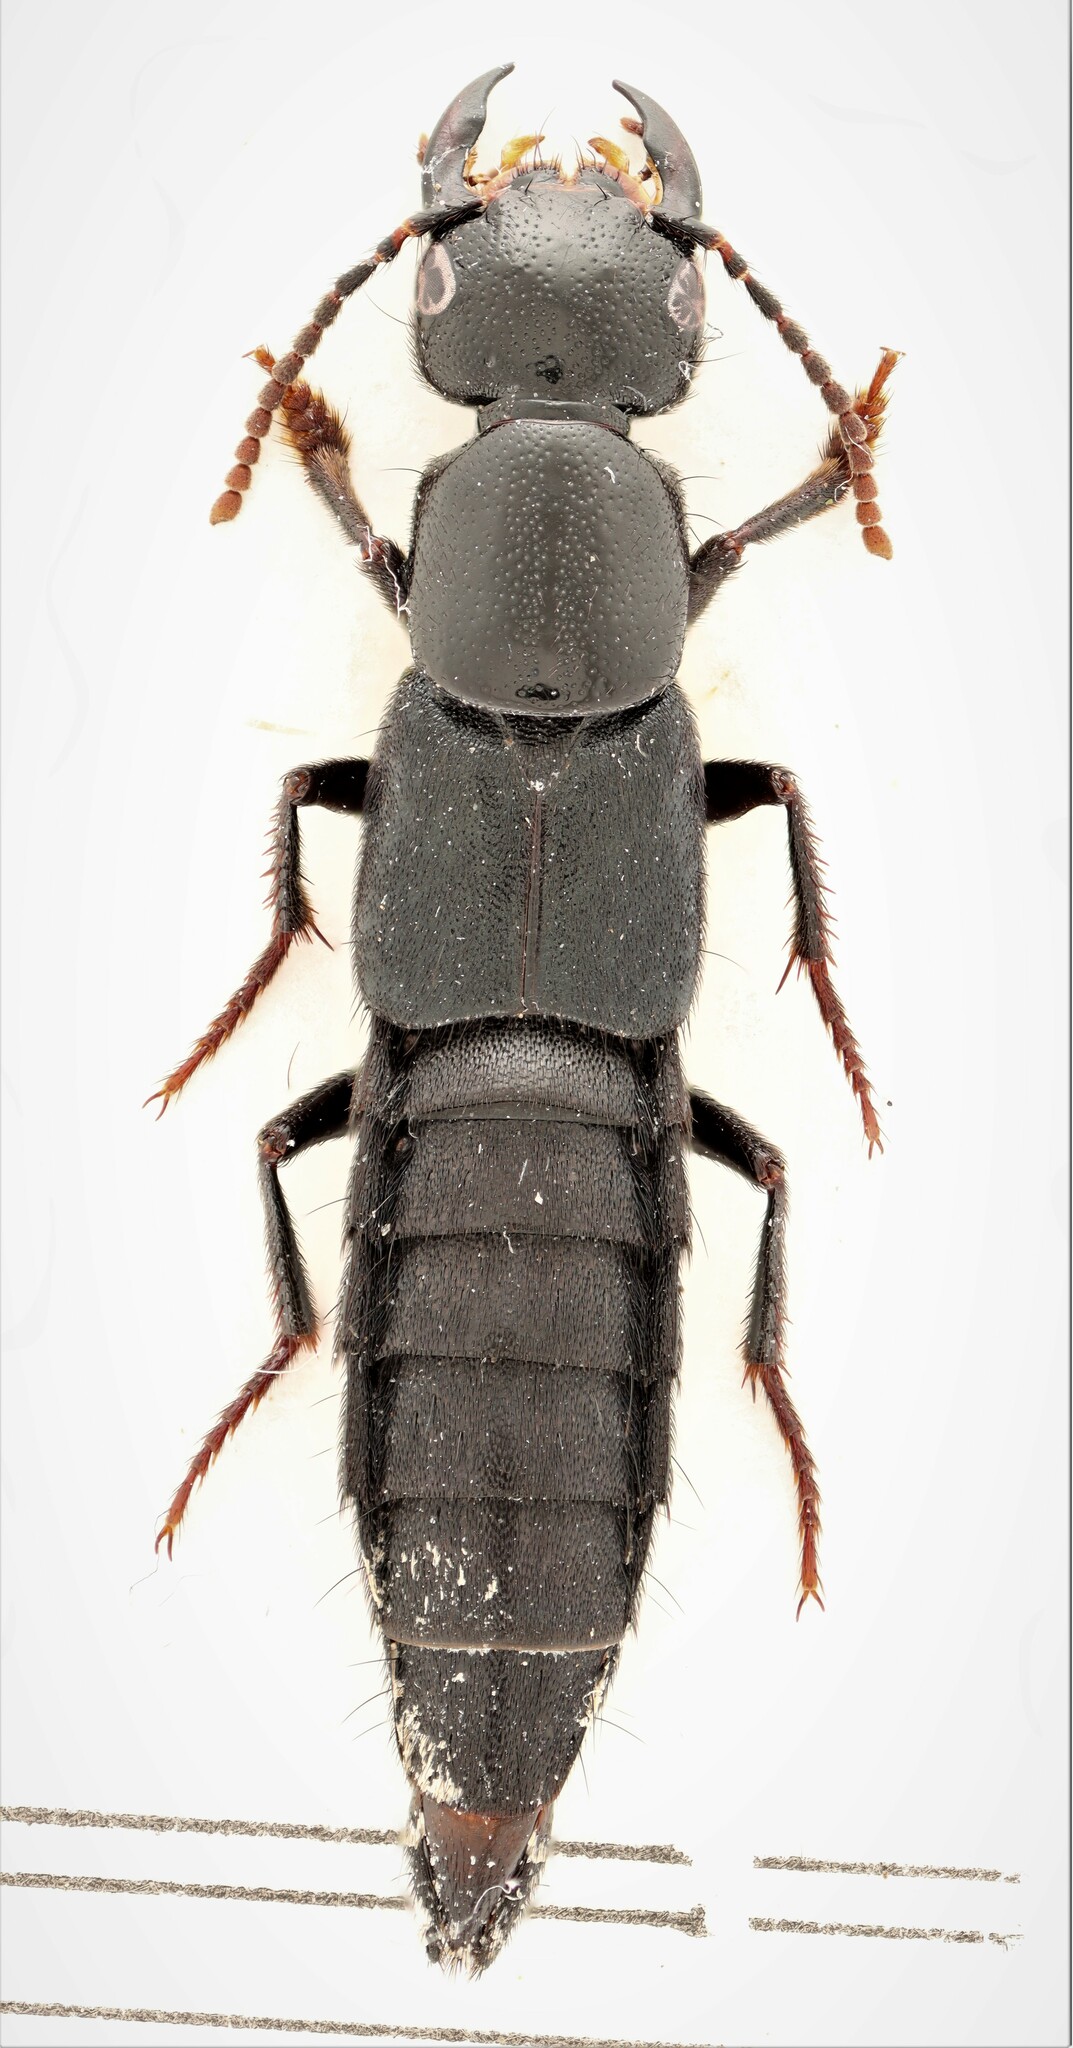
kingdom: Animalia
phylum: Arthropoda
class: Insecta
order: Coleoptera
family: Staphylinidae
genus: Tasgius
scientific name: Tasgius ater
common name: Staph beetle
